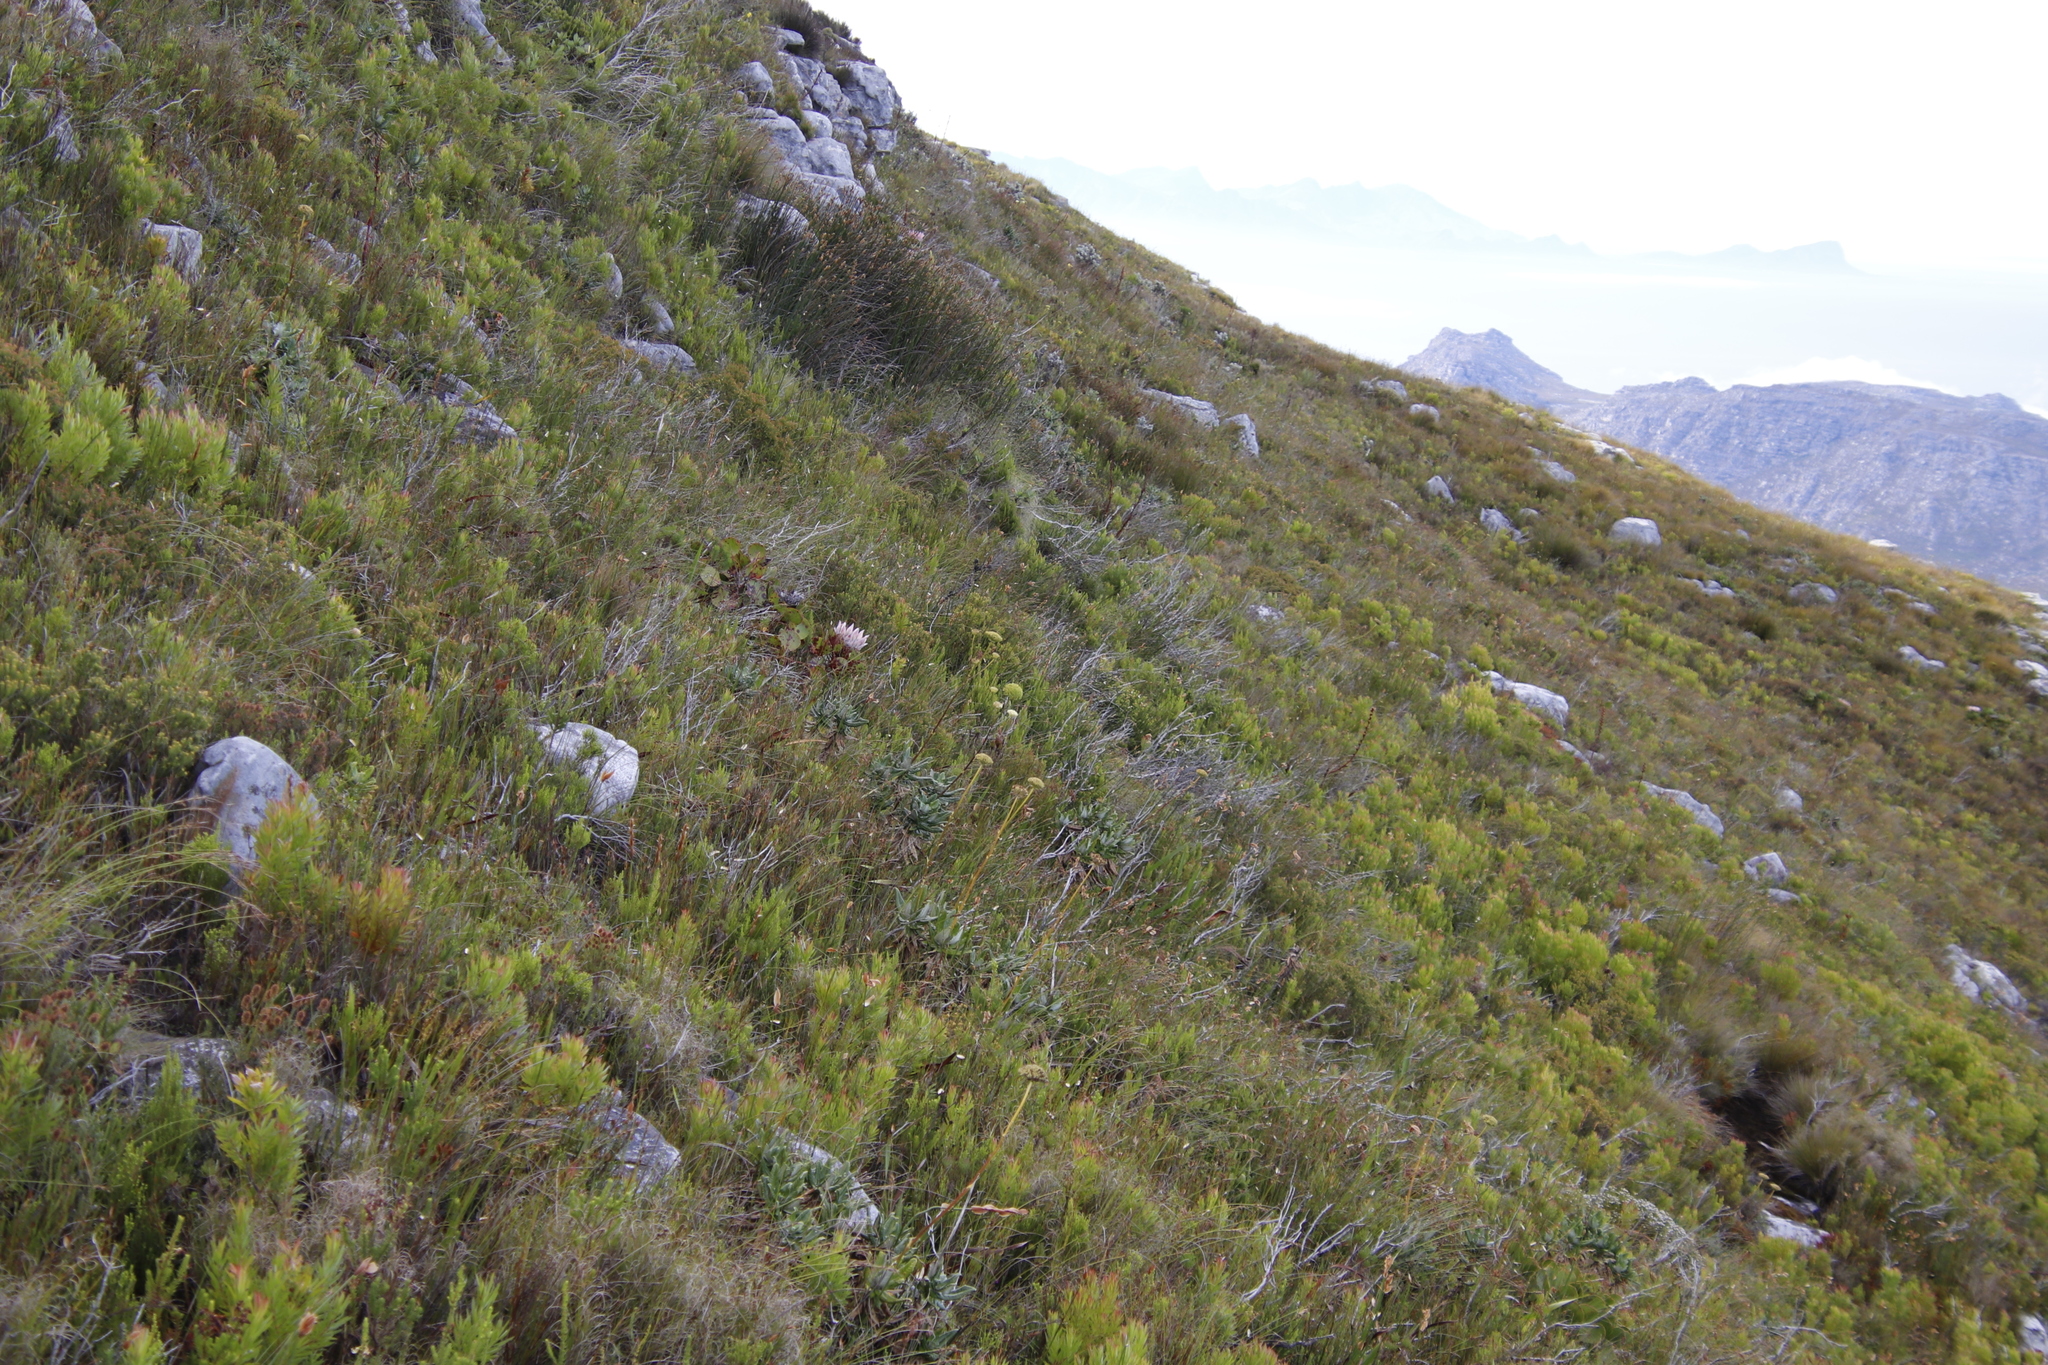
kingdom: Plantae
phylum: Tracheophyta
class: Magnoliopsida
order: Apiales
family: Apiaceae
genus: Hermas
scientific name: Hermas villosa
